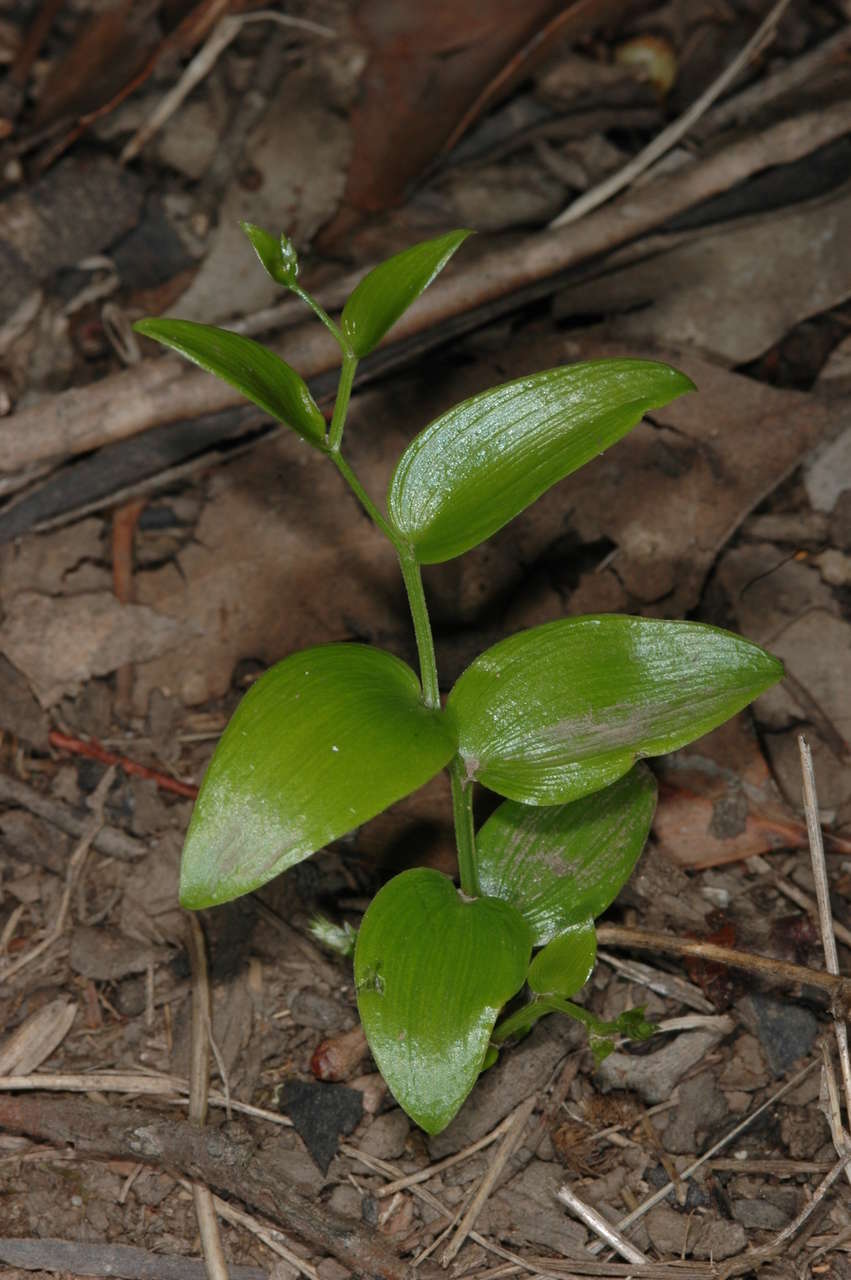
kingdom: Plantae
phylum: Tracheophyta
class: Liliopsida
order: Asparagales
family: Asparagaceae
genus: Asparagus
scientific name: Asparagus asparagoides
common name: African asparagus fern
